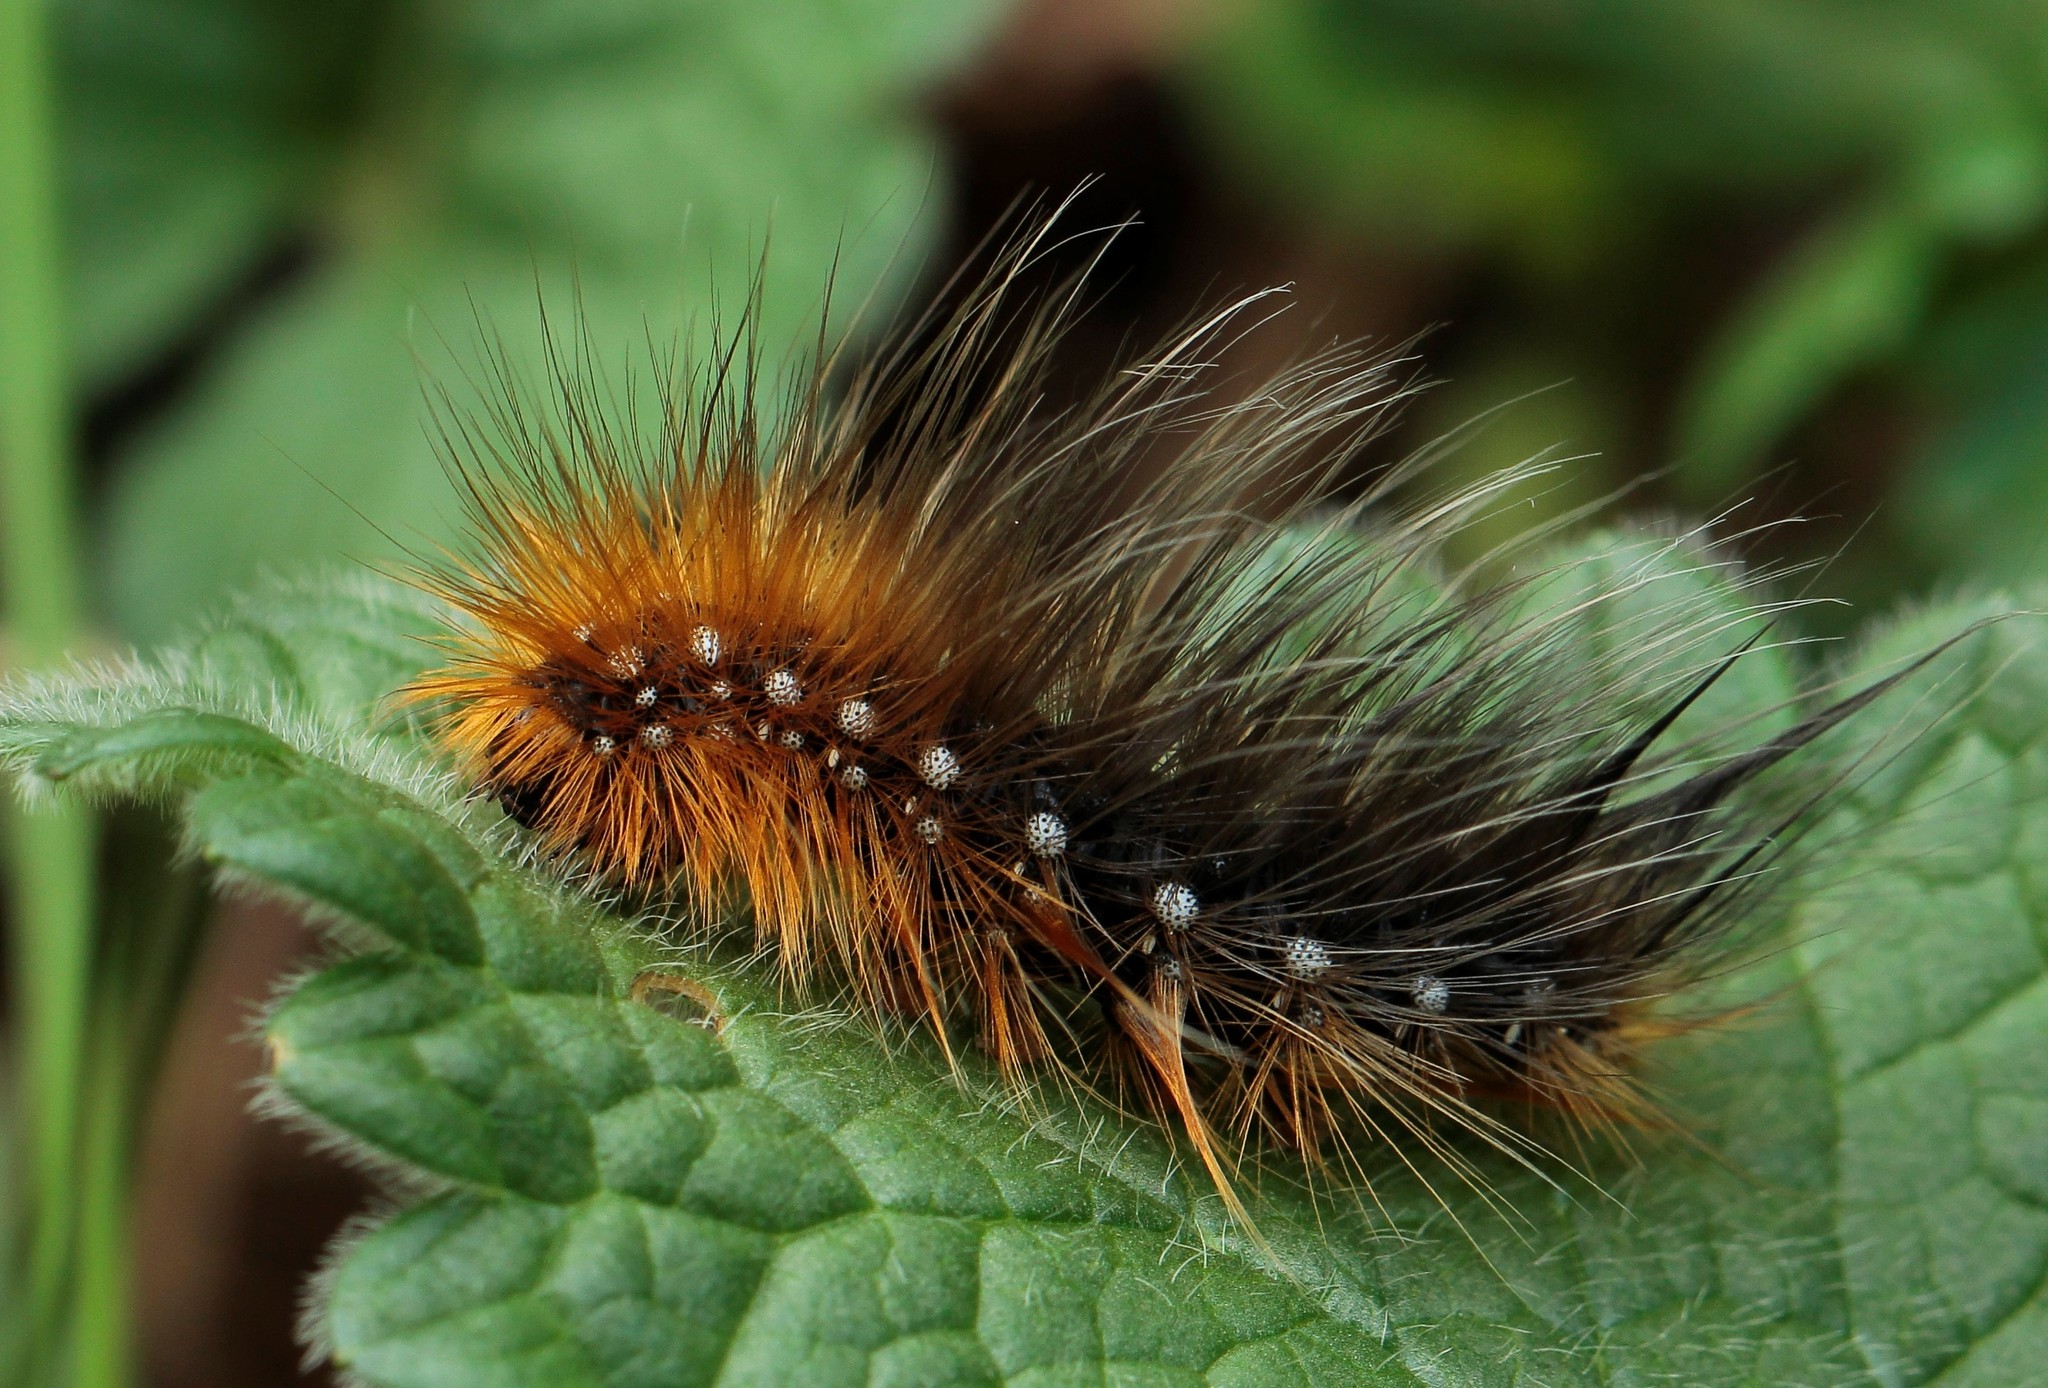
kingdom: Animalia
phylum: Arthropoda
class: Insecta
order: Lepidoptera
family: Erebidae
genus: Arctia
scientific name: Arctia caja
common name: Garden tiger
